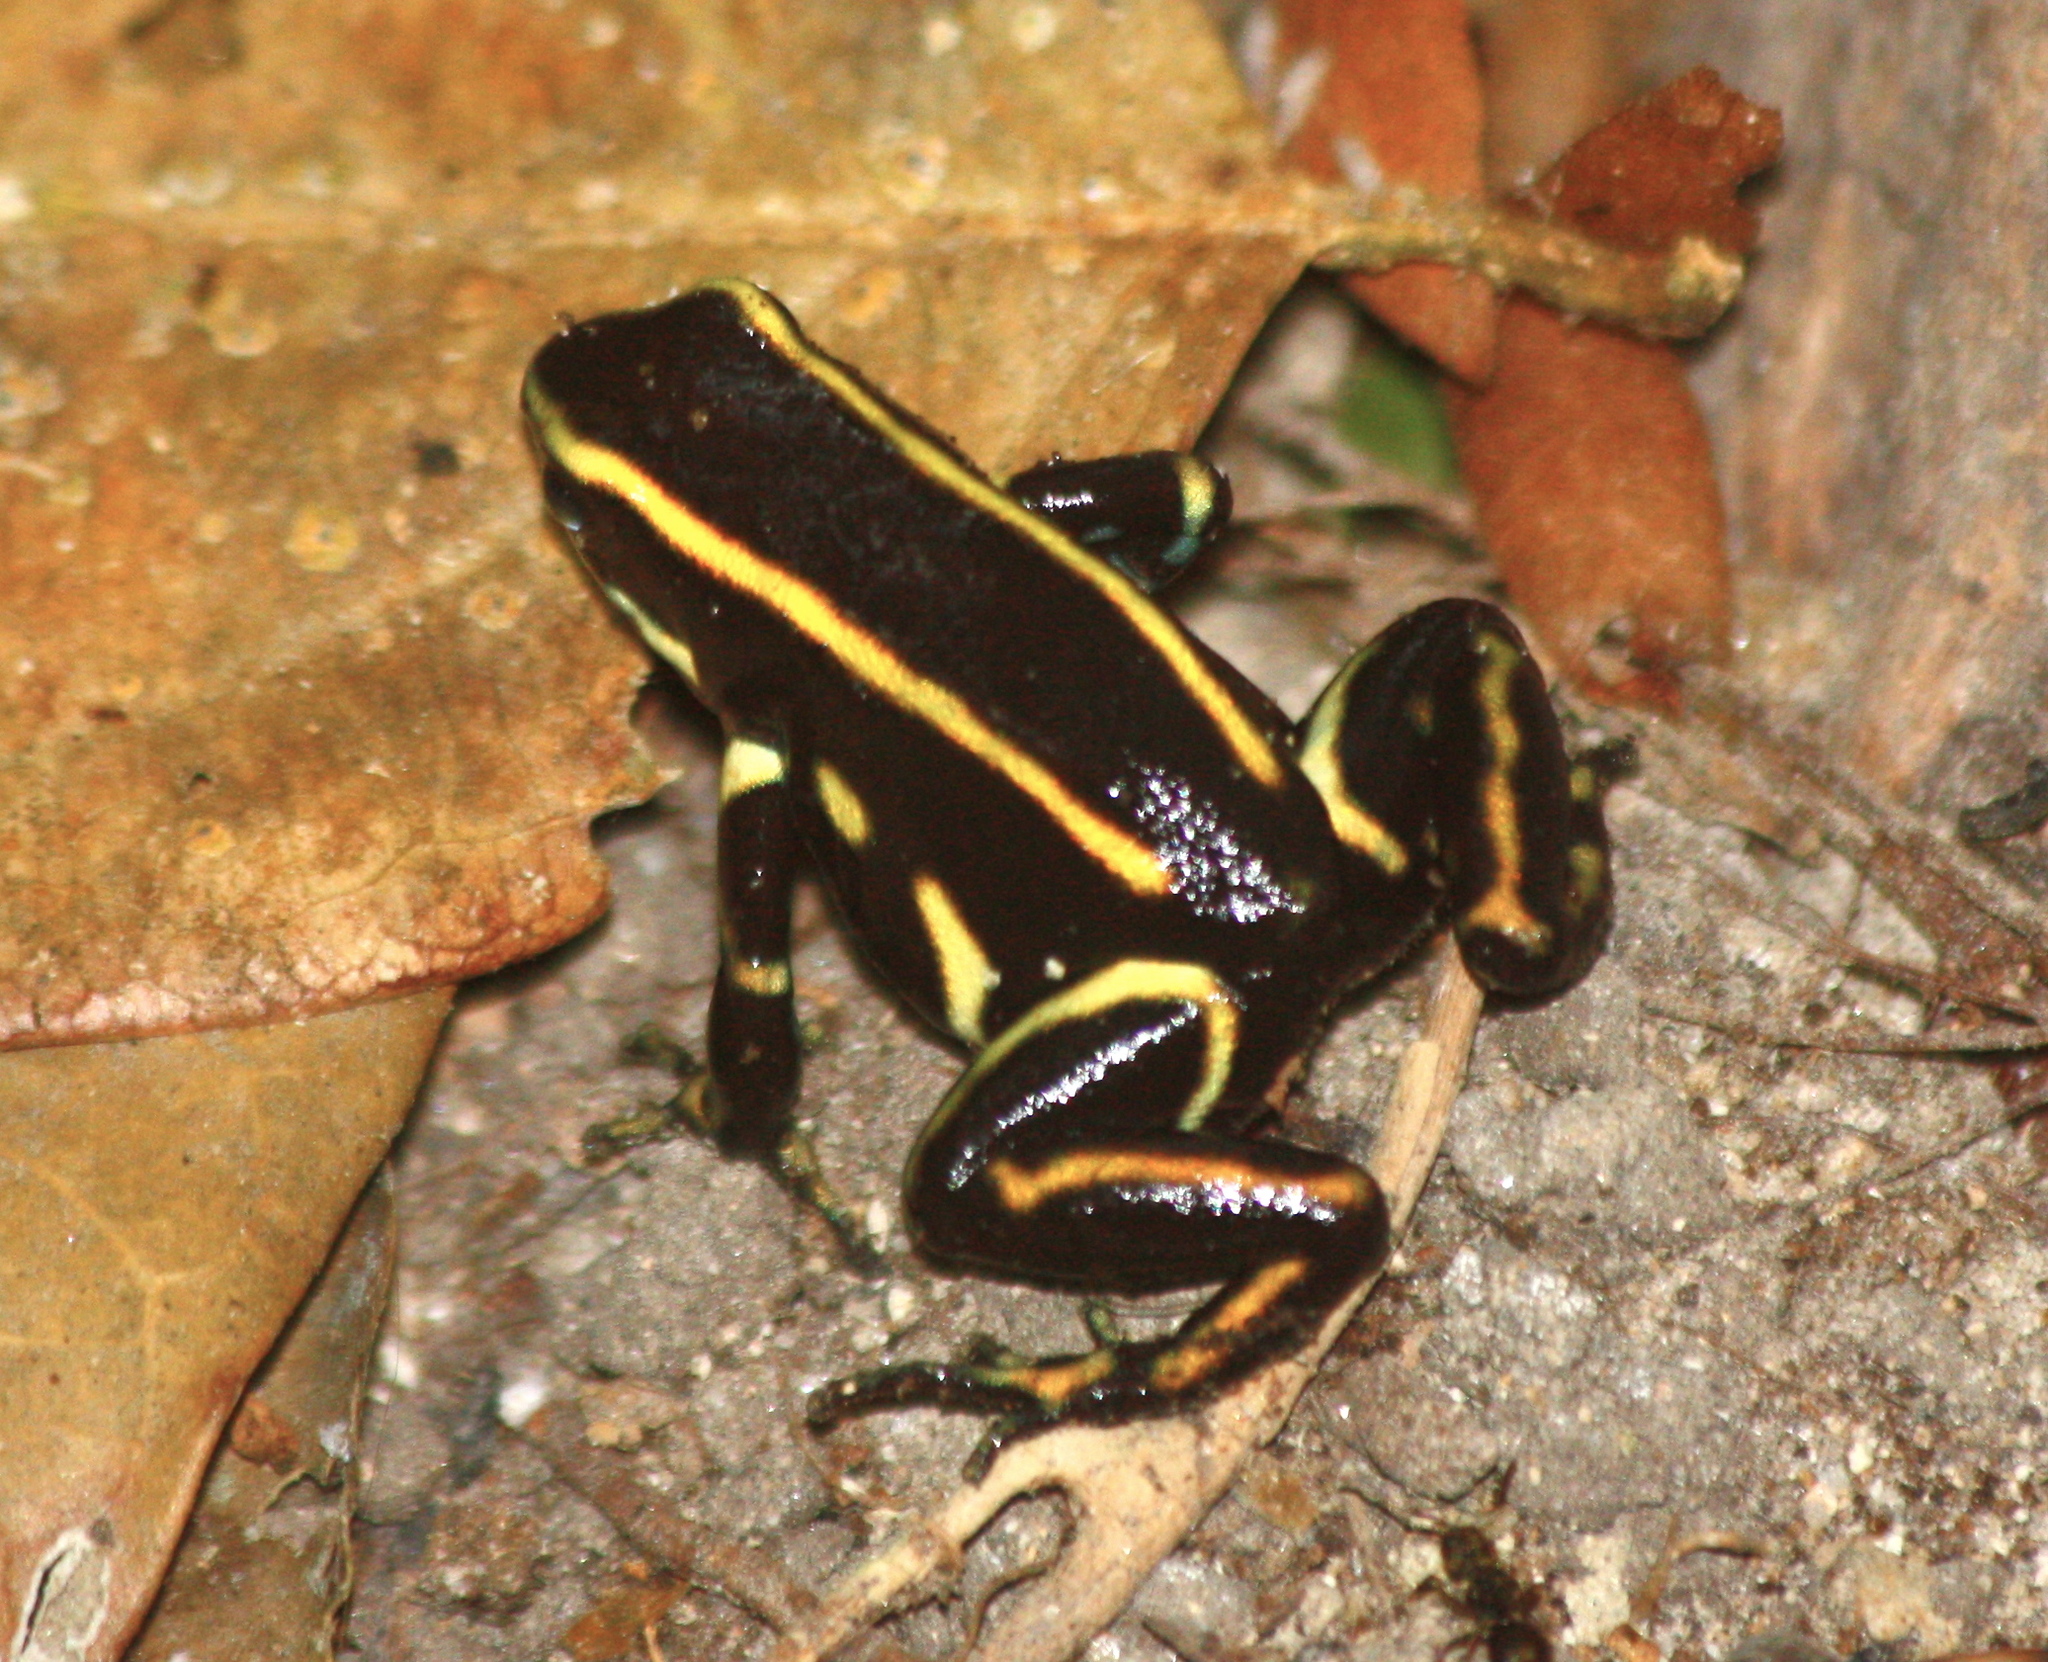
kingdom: Animalia
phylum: Chordata
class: Amphibia
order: Anura
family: Dendrobatidae
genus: Dendrobates
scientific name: Dendrobates truncatus
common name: Yellow-striped poison frog
